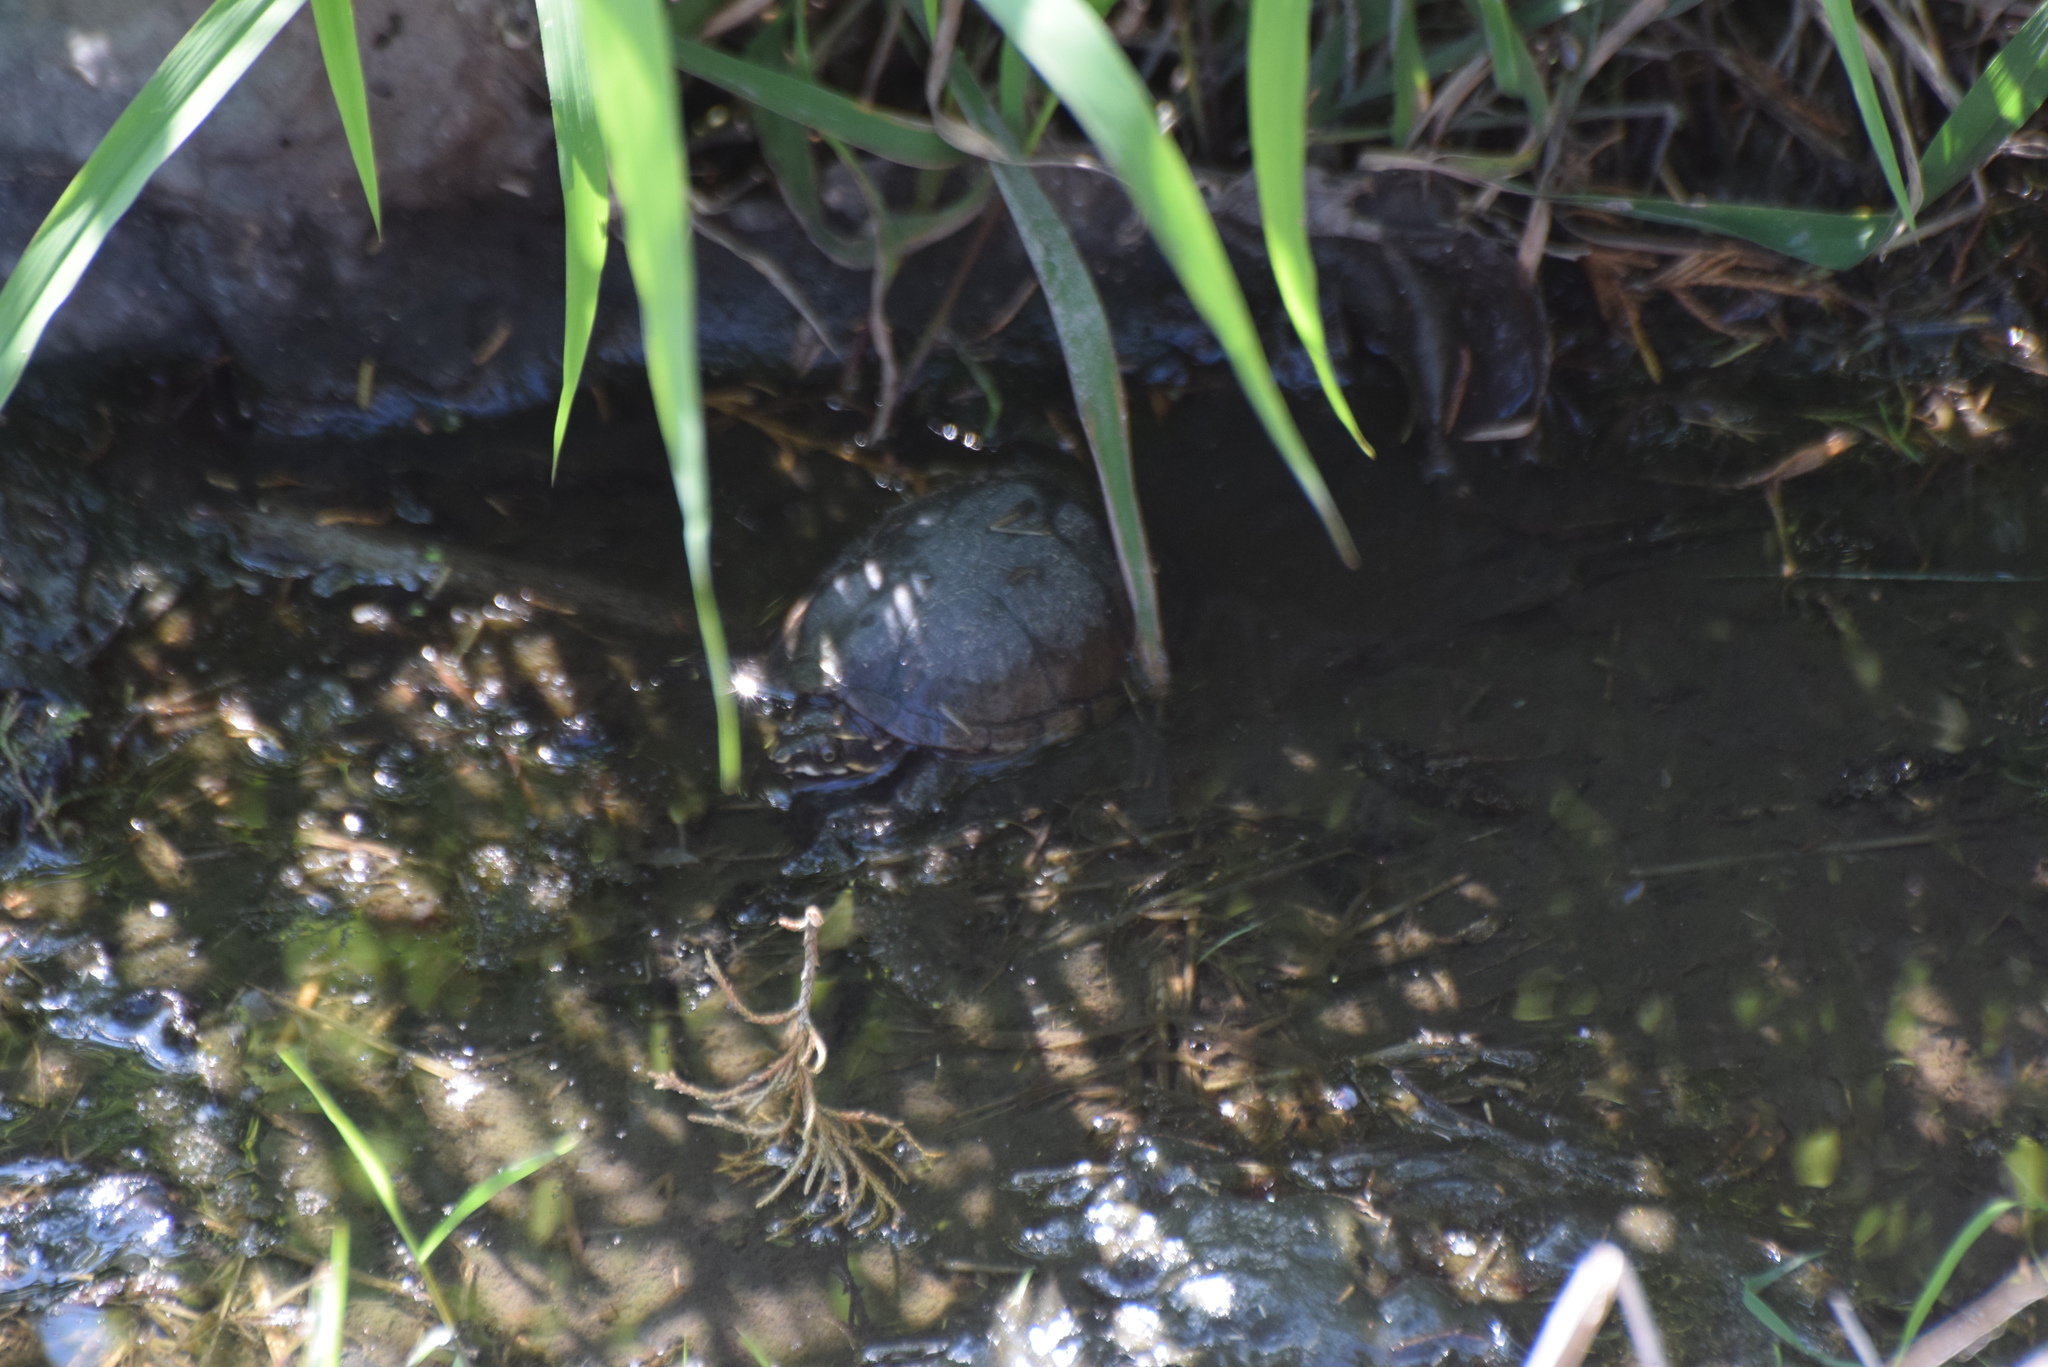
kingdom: Animalia
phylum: Chordata
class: Testudines
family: Kinosternidae
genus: Sternotherus
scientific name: Sternotherus odoratus
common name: Common musk turtle
